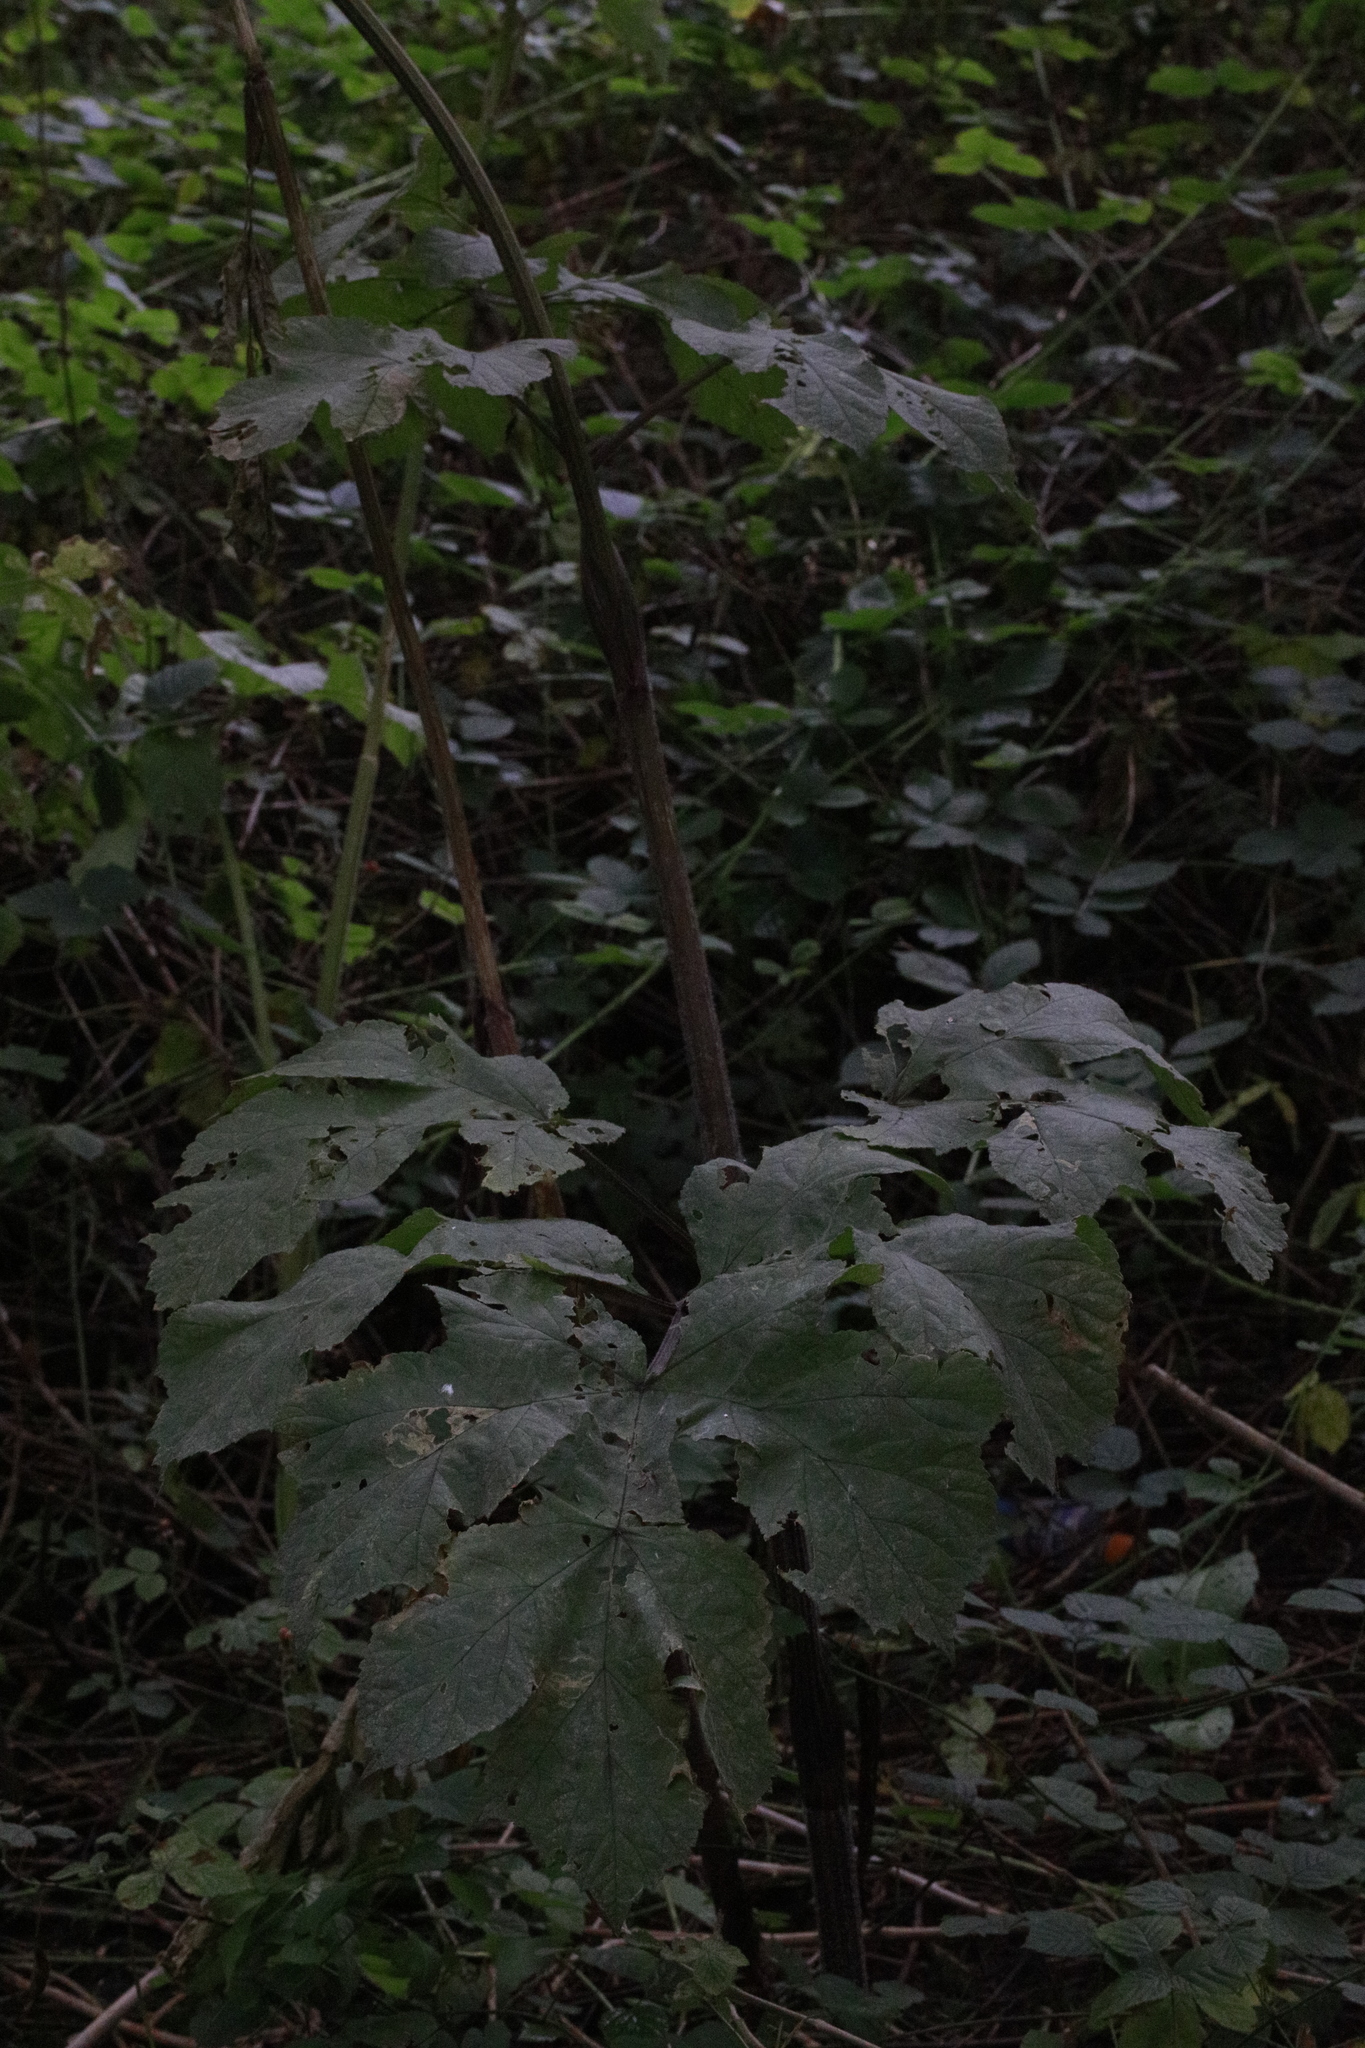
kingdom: Plantae
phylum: Tracheophyta
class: Magnoliopsida
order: Apiales
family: Apiaceae
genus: Heracleum
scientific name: Heracleum sphondylium
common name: Hogweed
